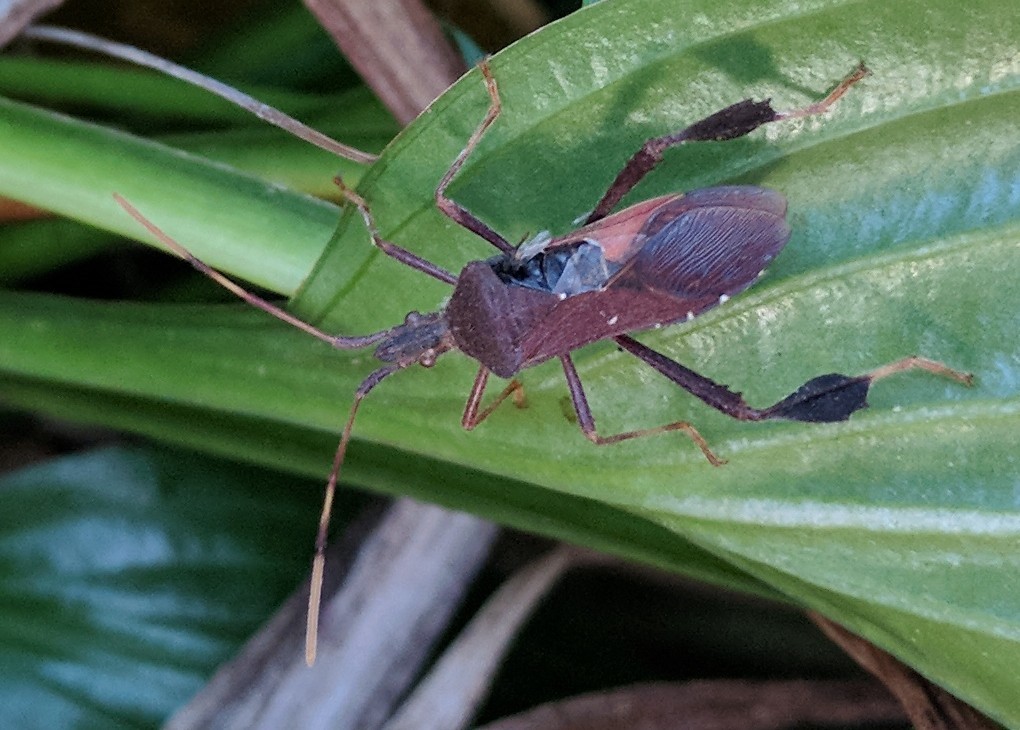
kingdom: Animalia
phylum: Arthropoda
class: Insecta
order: Hemiptera
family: Coreidae
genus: Leptoglossus
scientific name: Leptoglossus oppositus
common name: Northern leaf-footed bug
